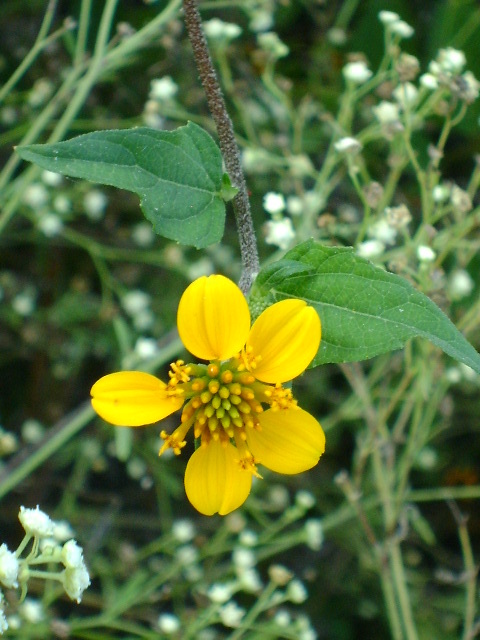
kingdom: Plantae
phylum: Tracheophyta
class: Magnoliopsida
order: Asterales
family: Asteraceae
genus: Sclerocarpus
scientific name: Sclerocarpus uniserialis
